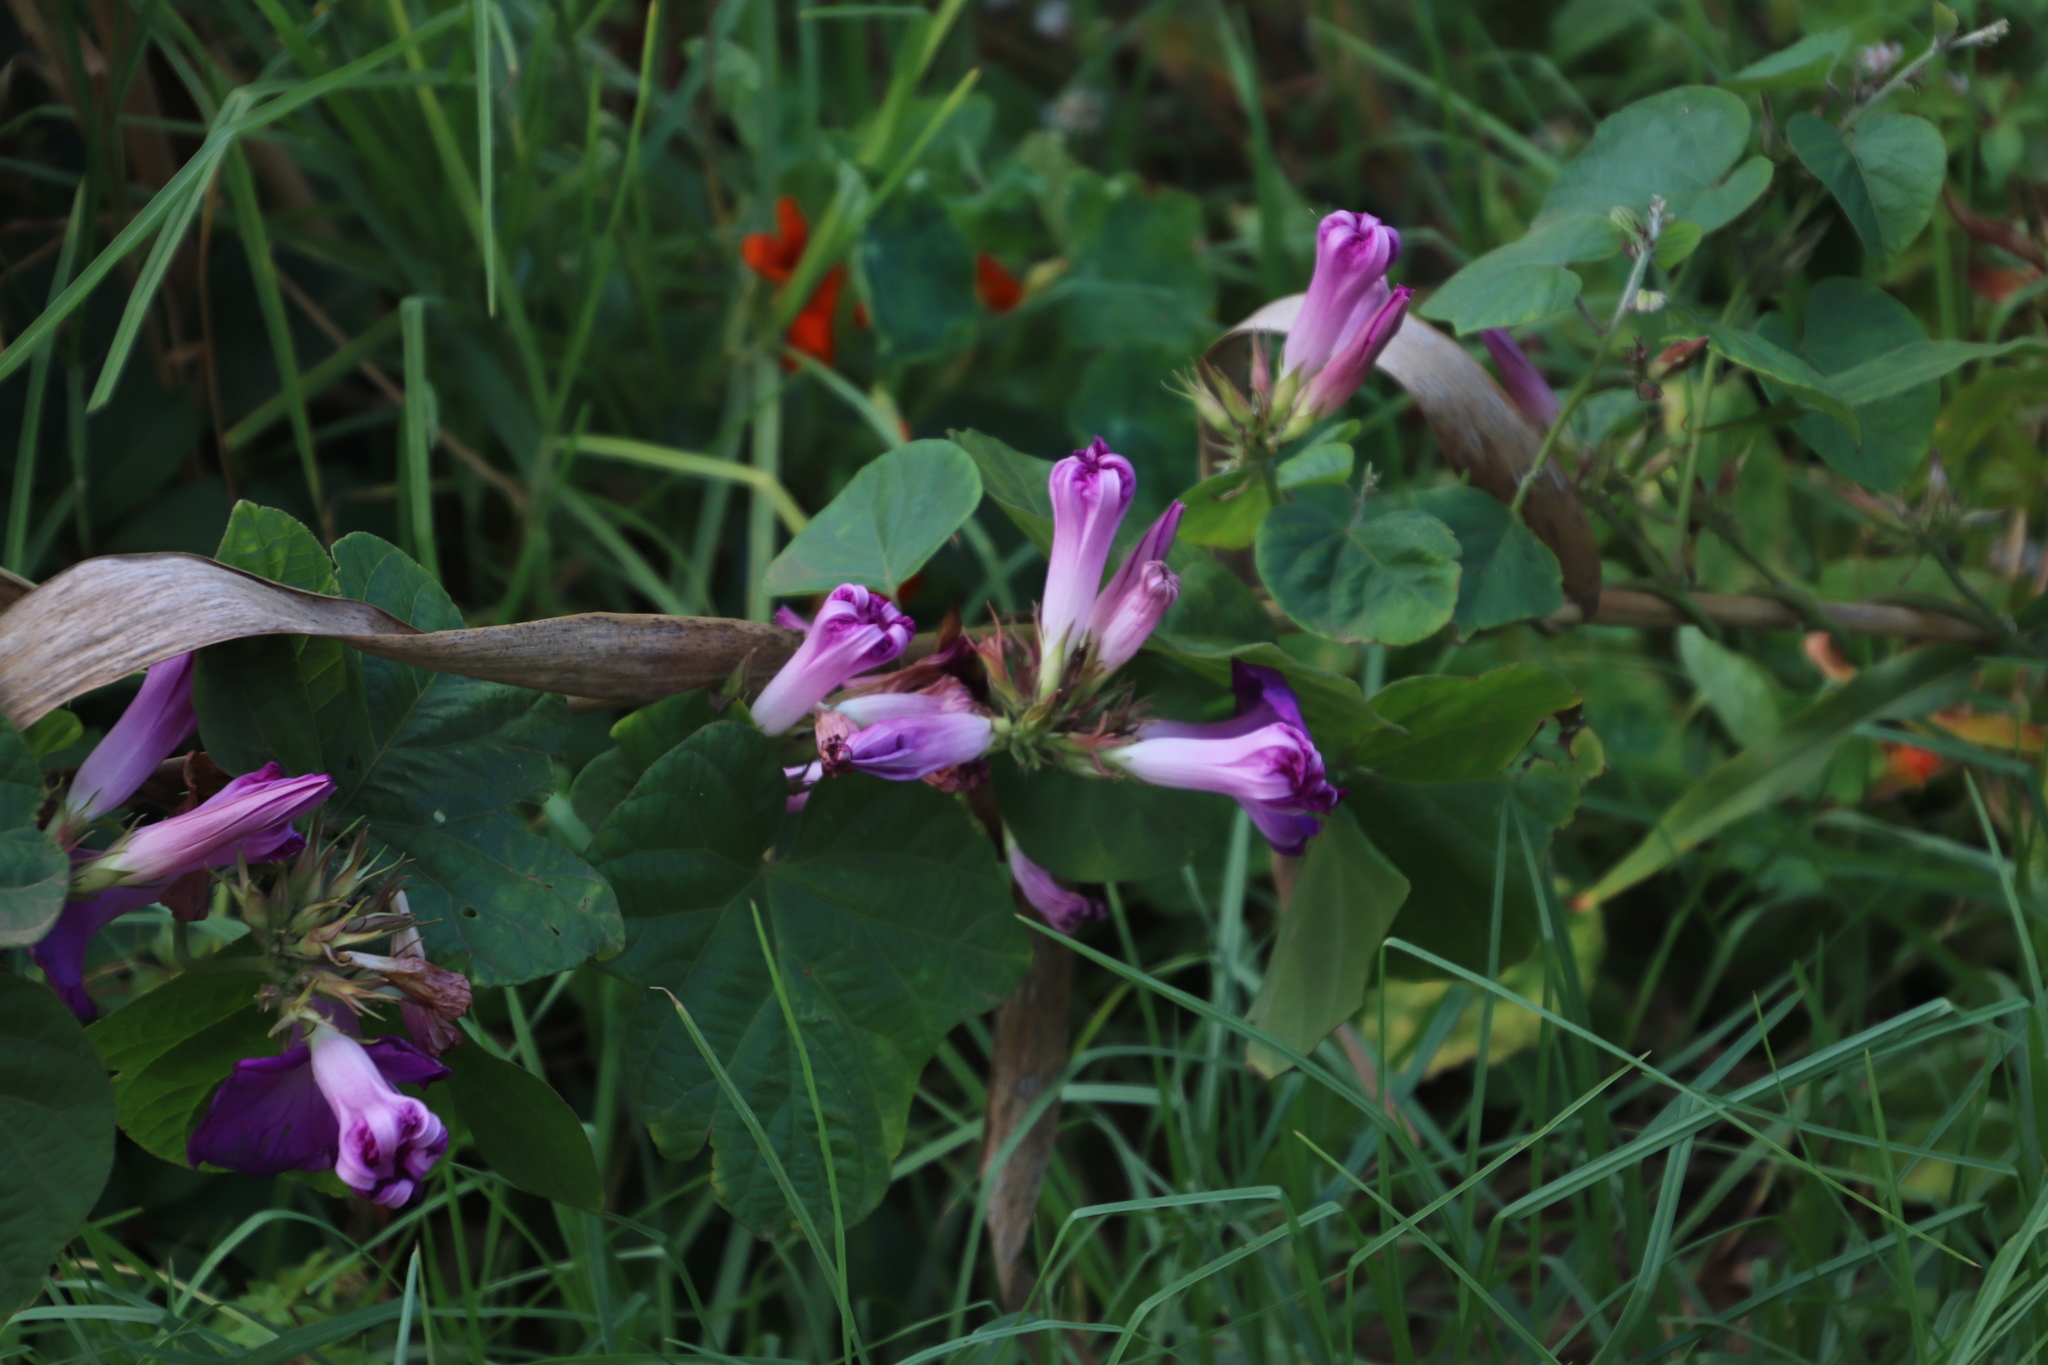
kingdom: Plantae
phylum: Tracheophyta
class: Magnoliopsida
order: Solanales
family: Convolvulaceae
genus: Ipomoea
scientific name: Ipomoea indica
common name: Blue dawnflower
